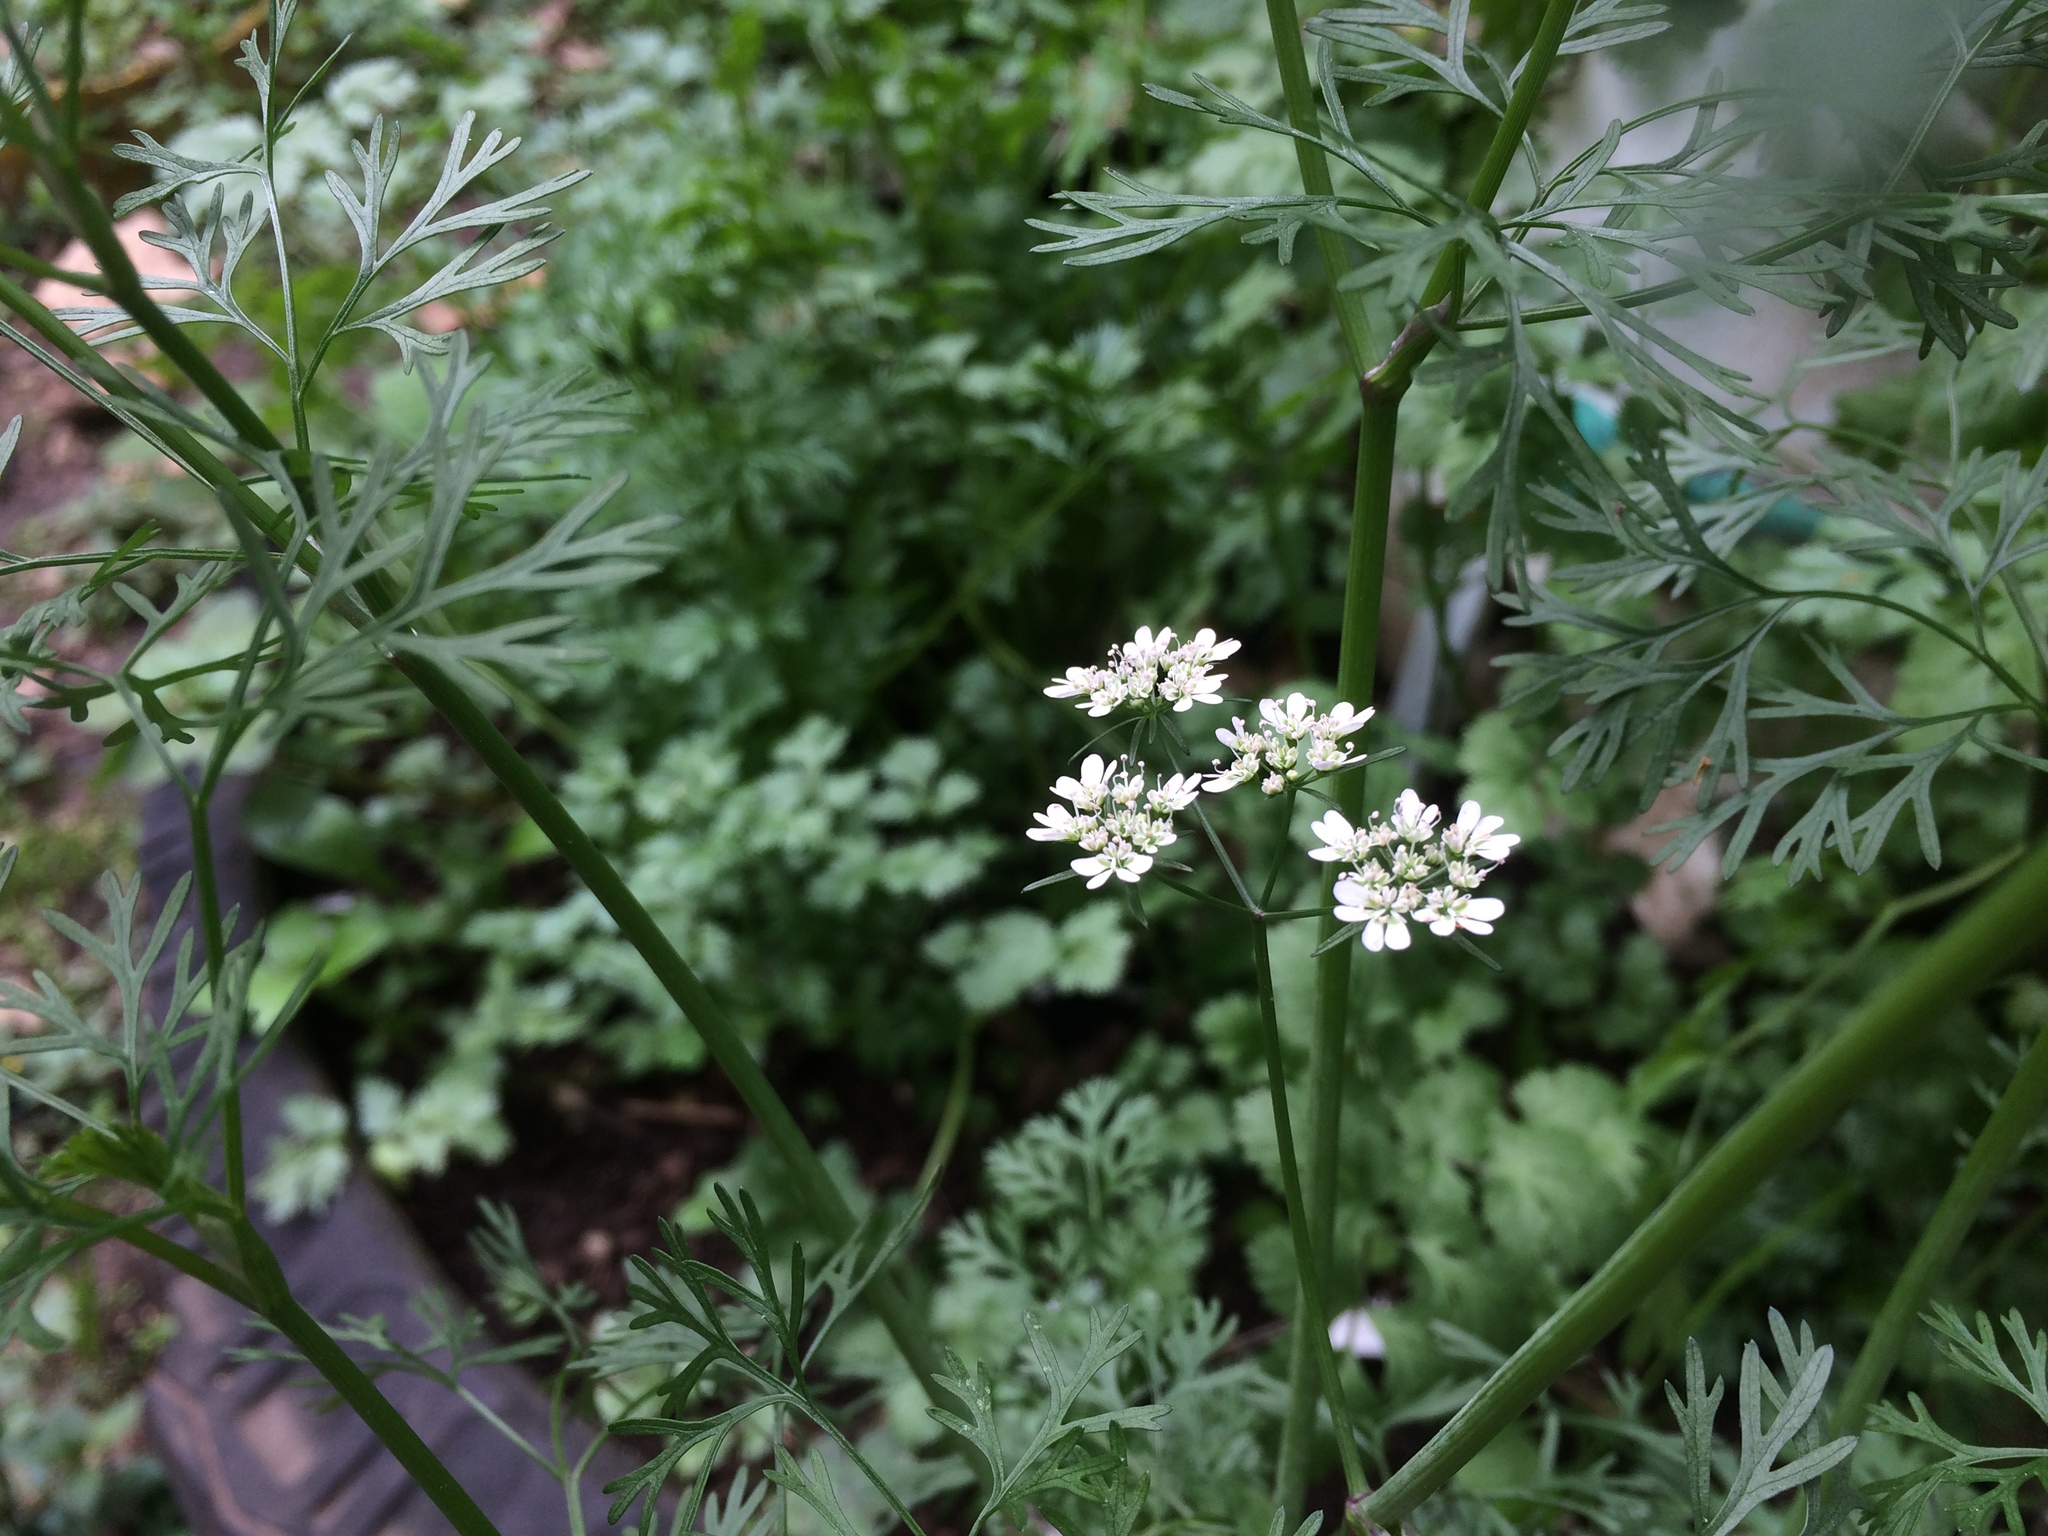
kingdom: Plantae
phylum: Tracheophyta
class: Magnoliopsida
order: Apiales
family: Apiaceae
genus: Coriandrum
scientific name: Coriandrum sativum
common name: Coriander
